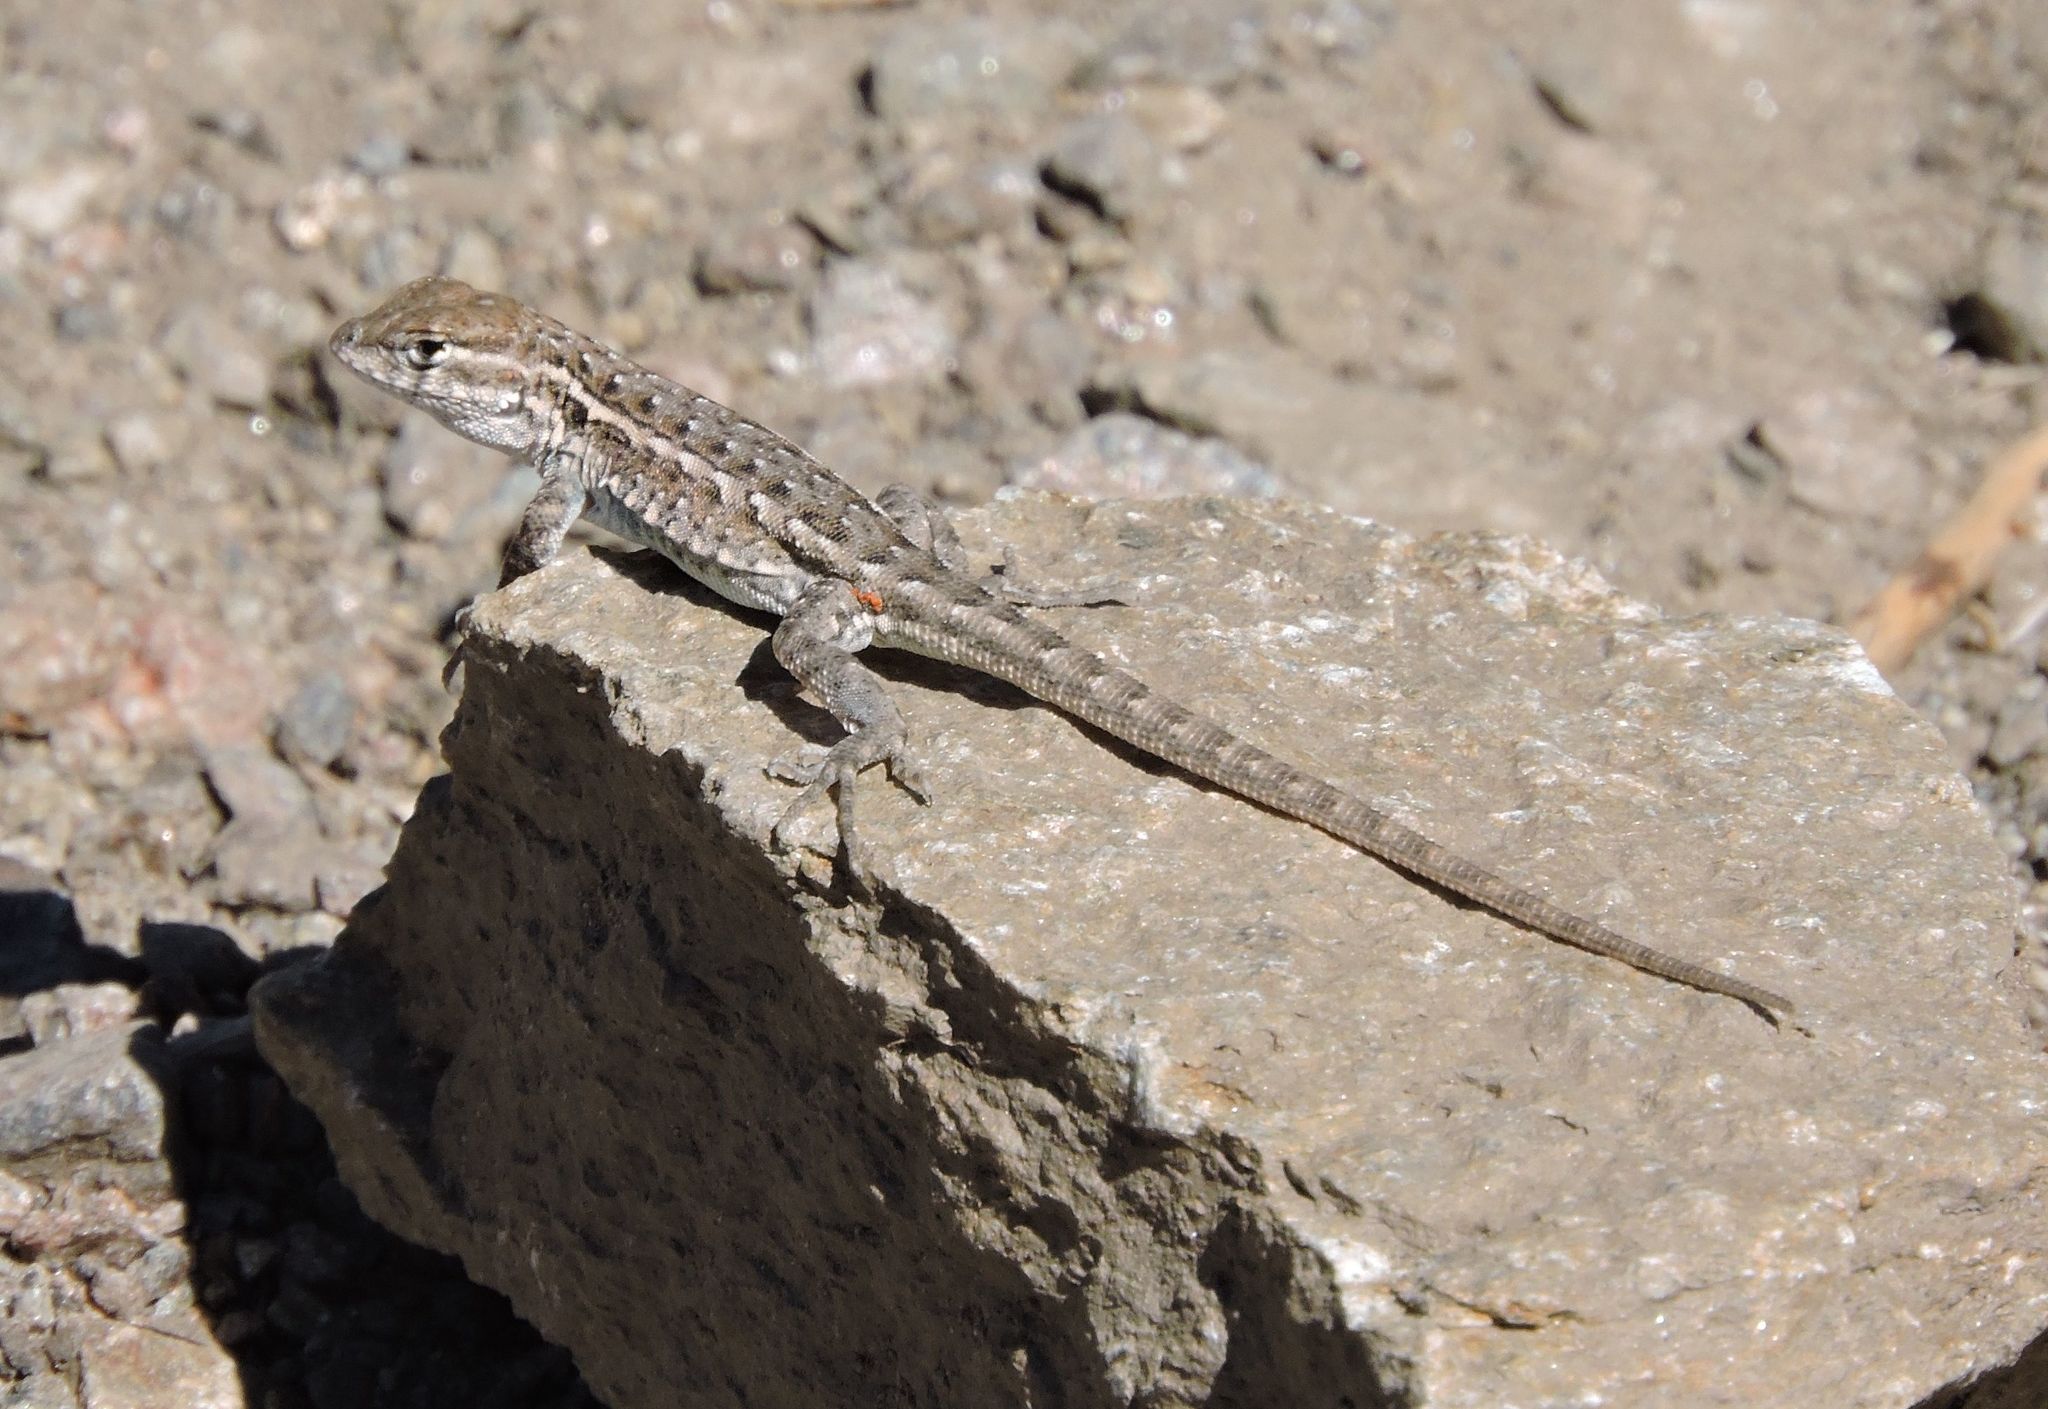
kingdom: Animalia
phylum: Chordata
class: Squamata
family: Phrynosomatidae
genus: Uta
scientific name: Uta stansburiana
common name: Side-blotched lizard
